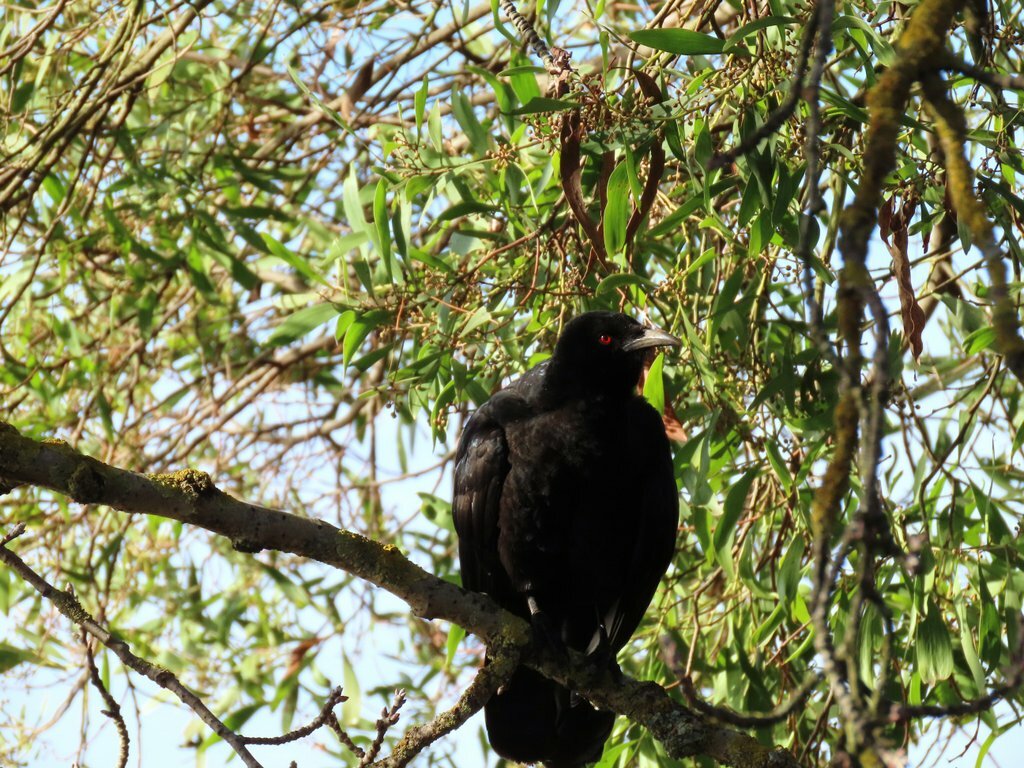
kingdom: Animalia
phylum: Chordata
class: Aves
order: Passeriformes
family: Corcoracidae
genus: Corcorax
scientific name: Corcorax melanoramphos
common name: White-winged chough
